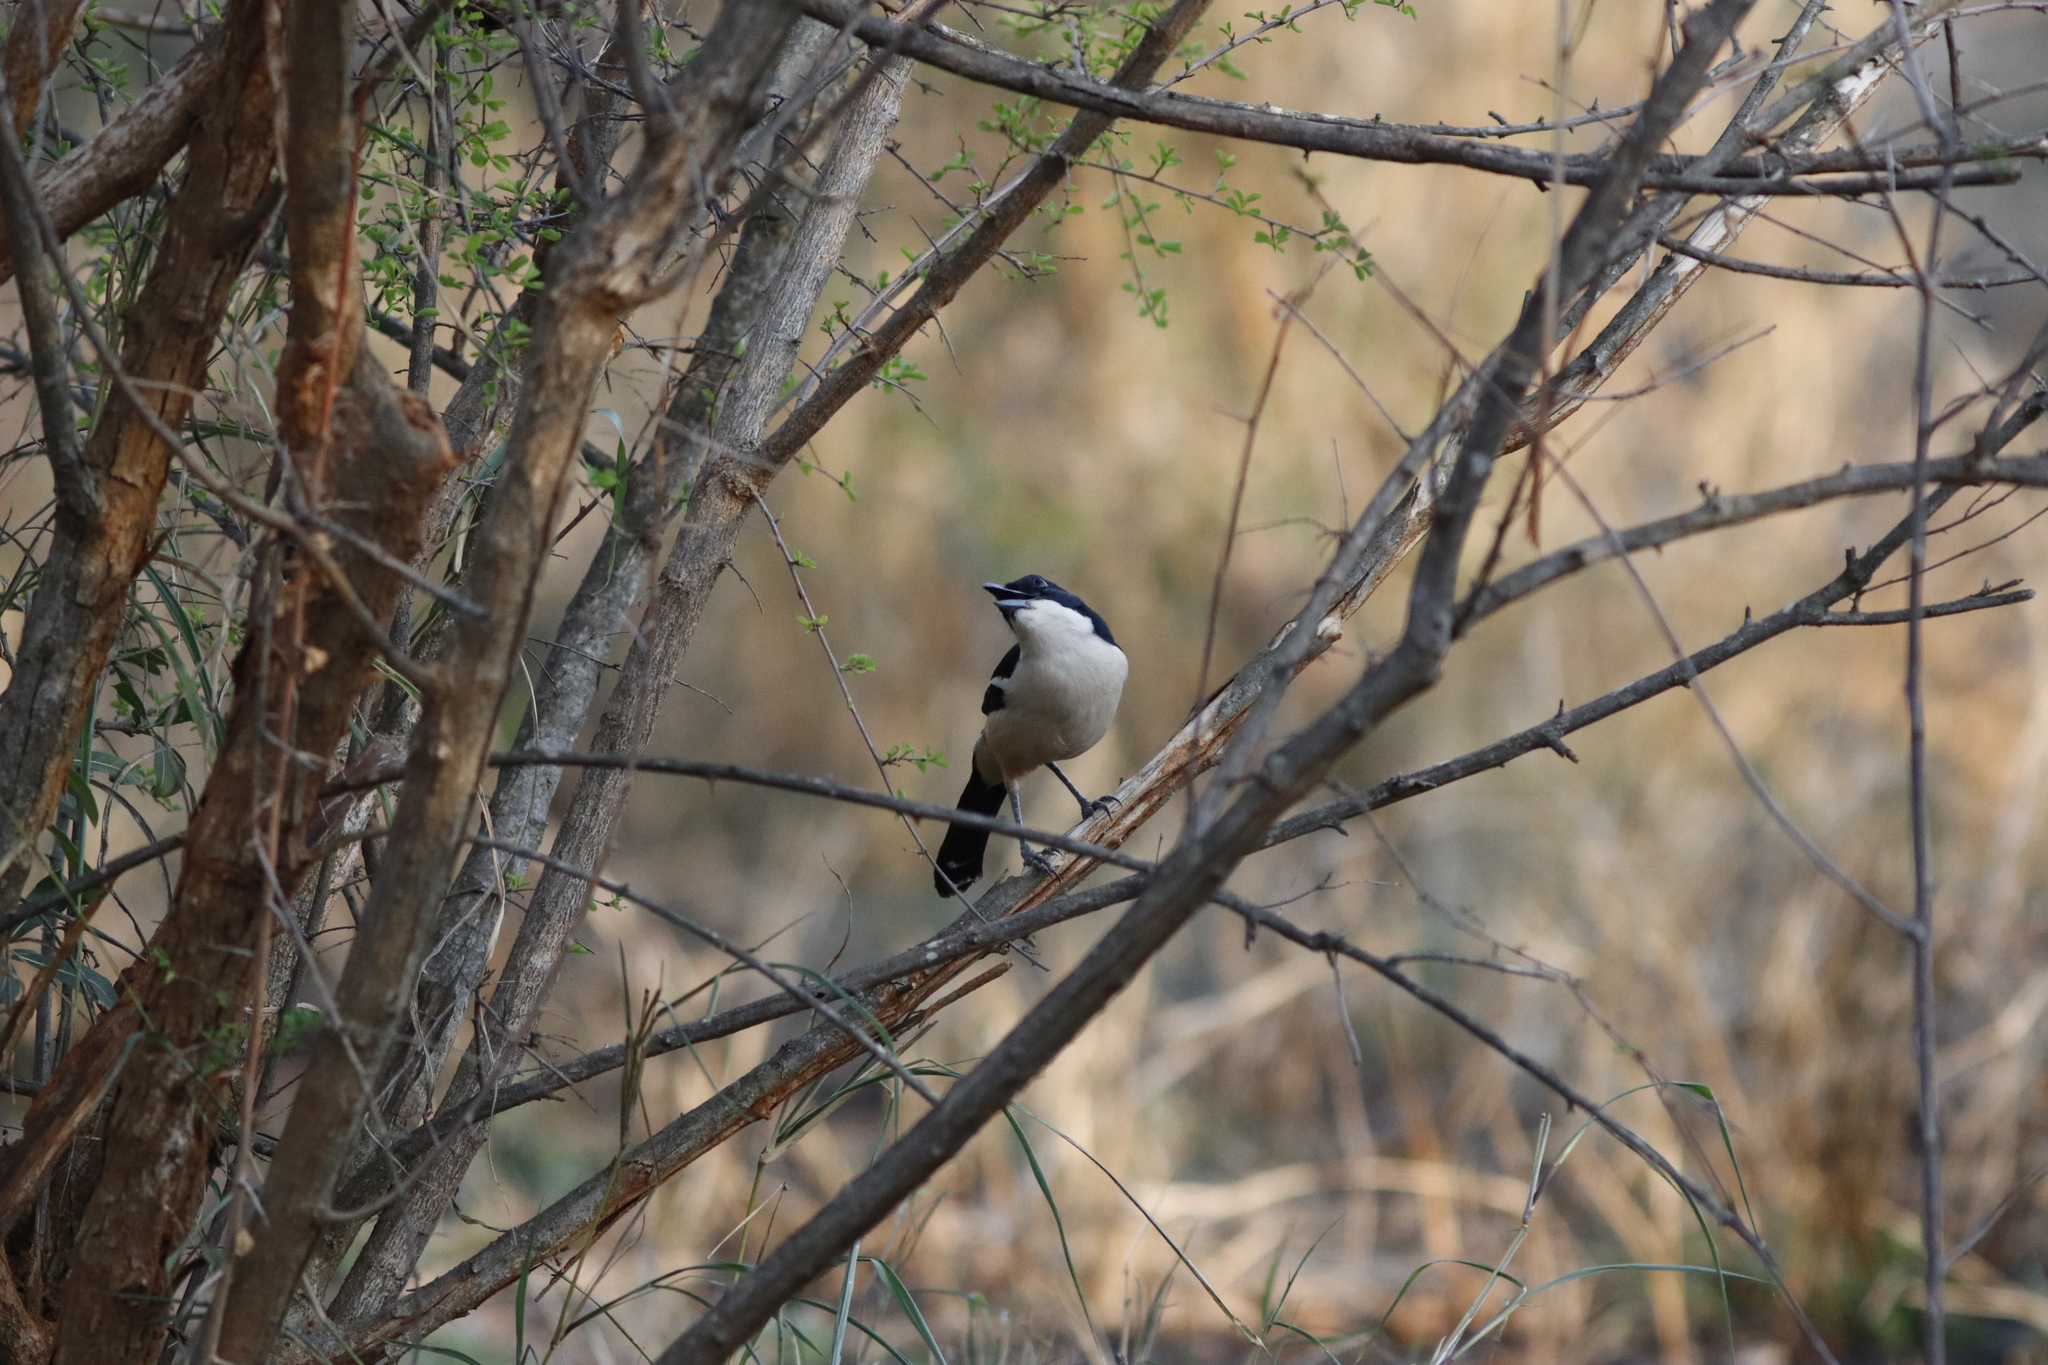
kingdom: Animalia
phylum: Chordata
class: Aves
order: Passeriformes
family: Malaconotidae
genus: Laniarius
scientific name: Laniarius major
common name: Tropical boubou
